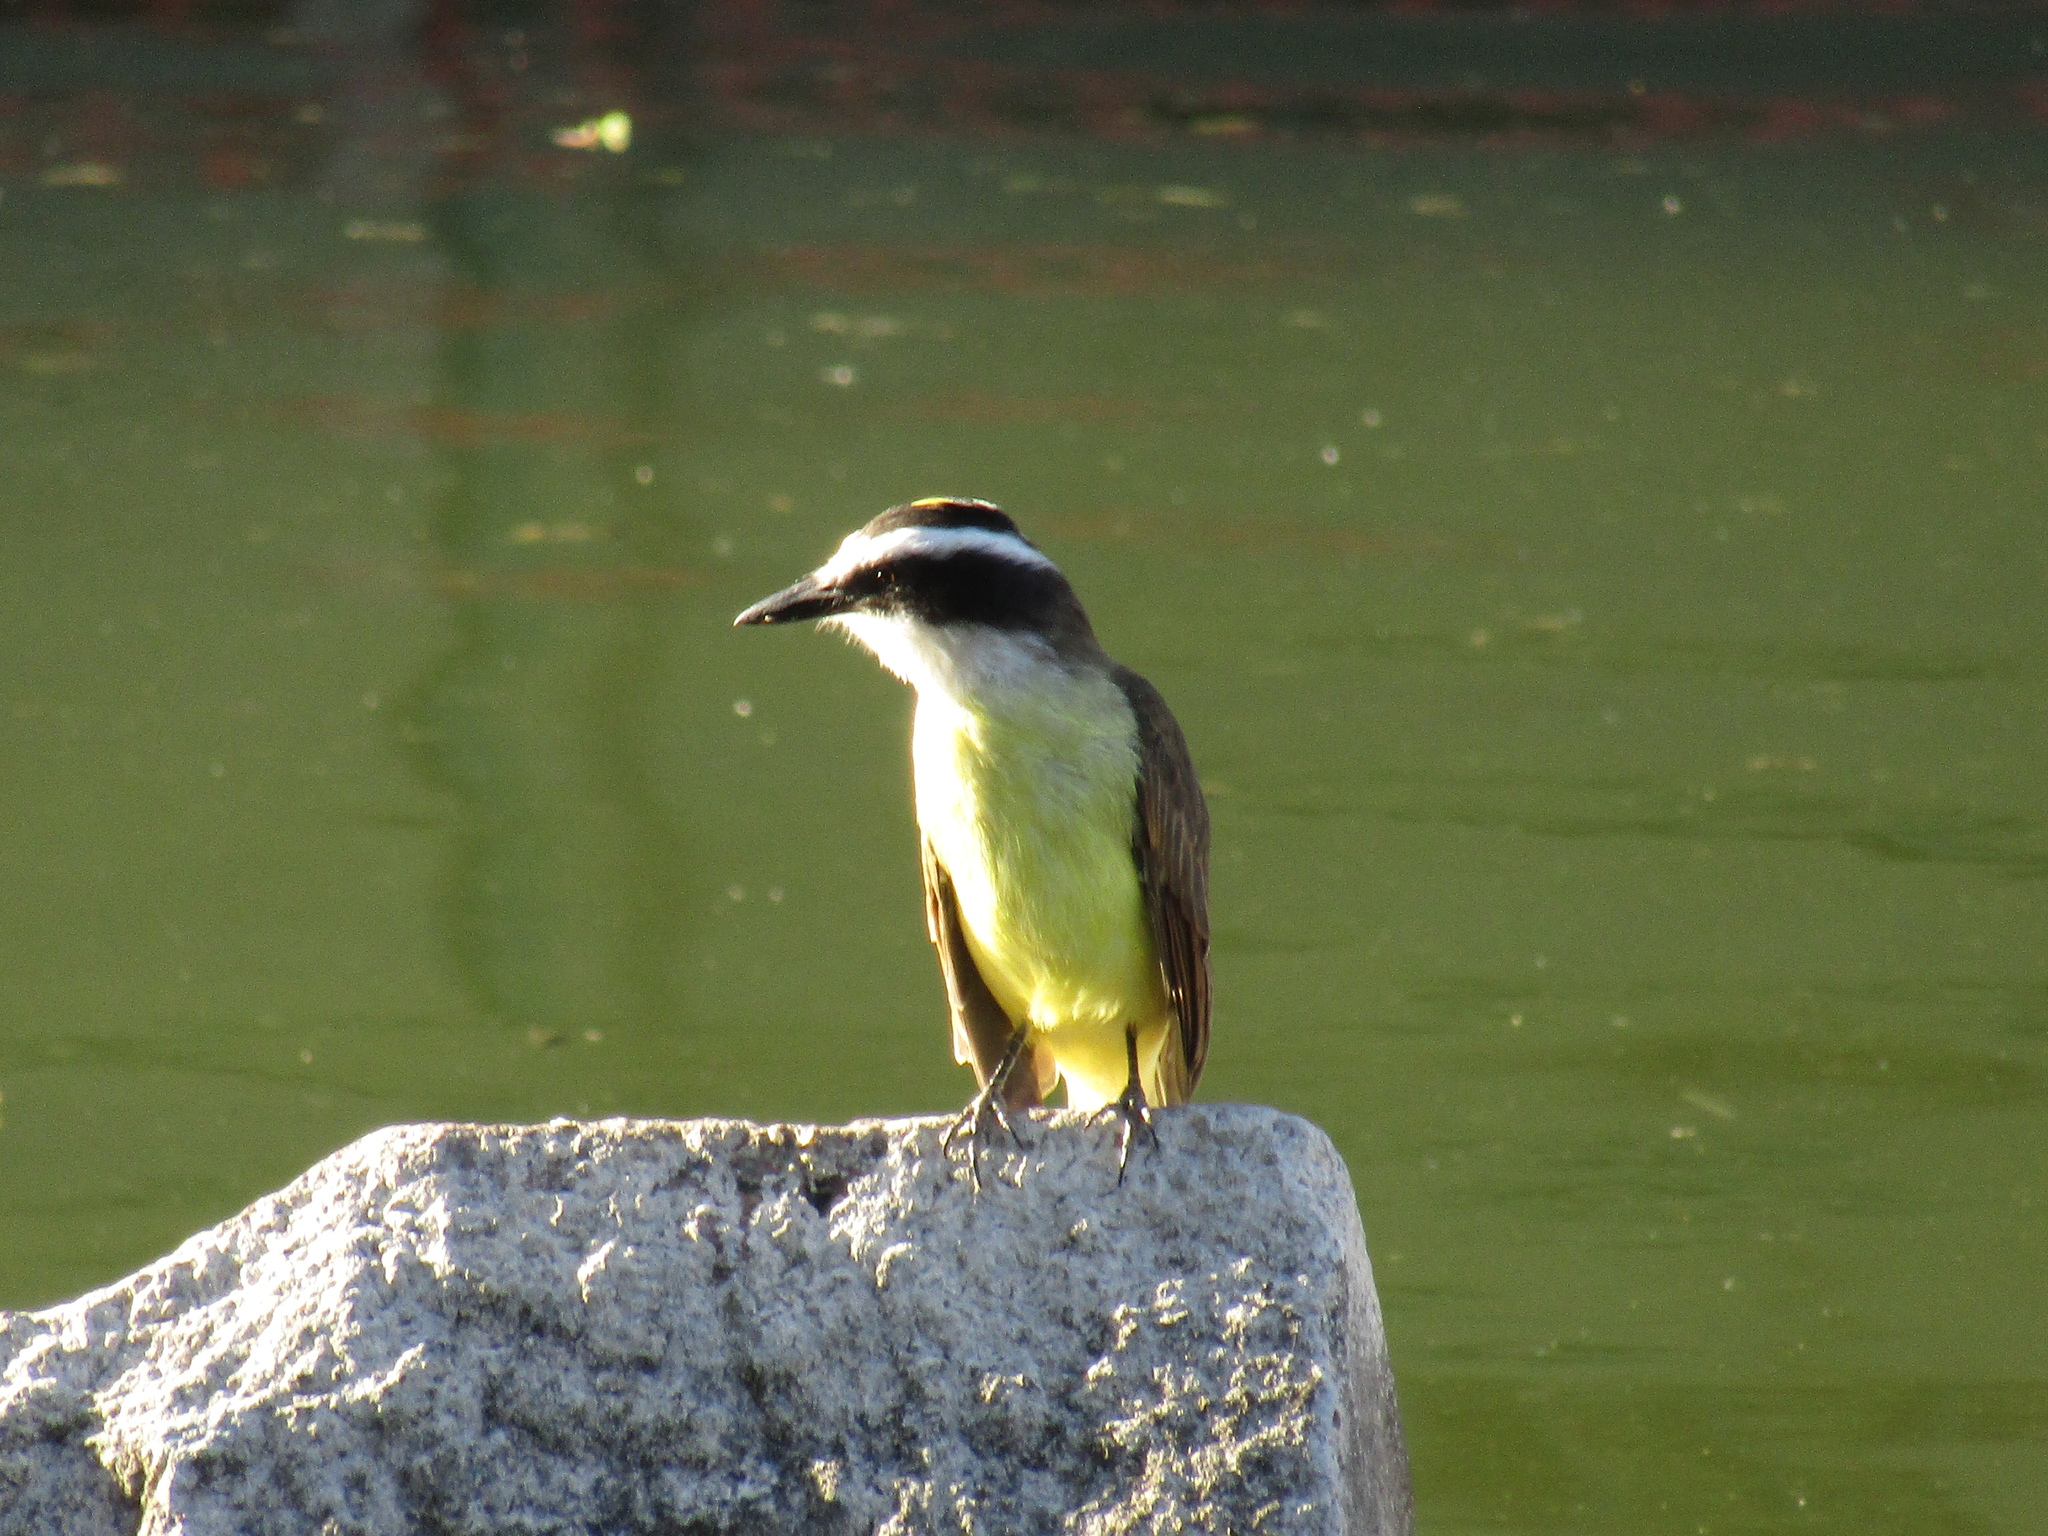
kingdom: Animalia
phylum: Chordata
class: Aves
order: Passeriformes
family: Tyrannidae
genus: Pitangus
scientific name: Pitangus sulphuratus
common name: Great kiskadee
